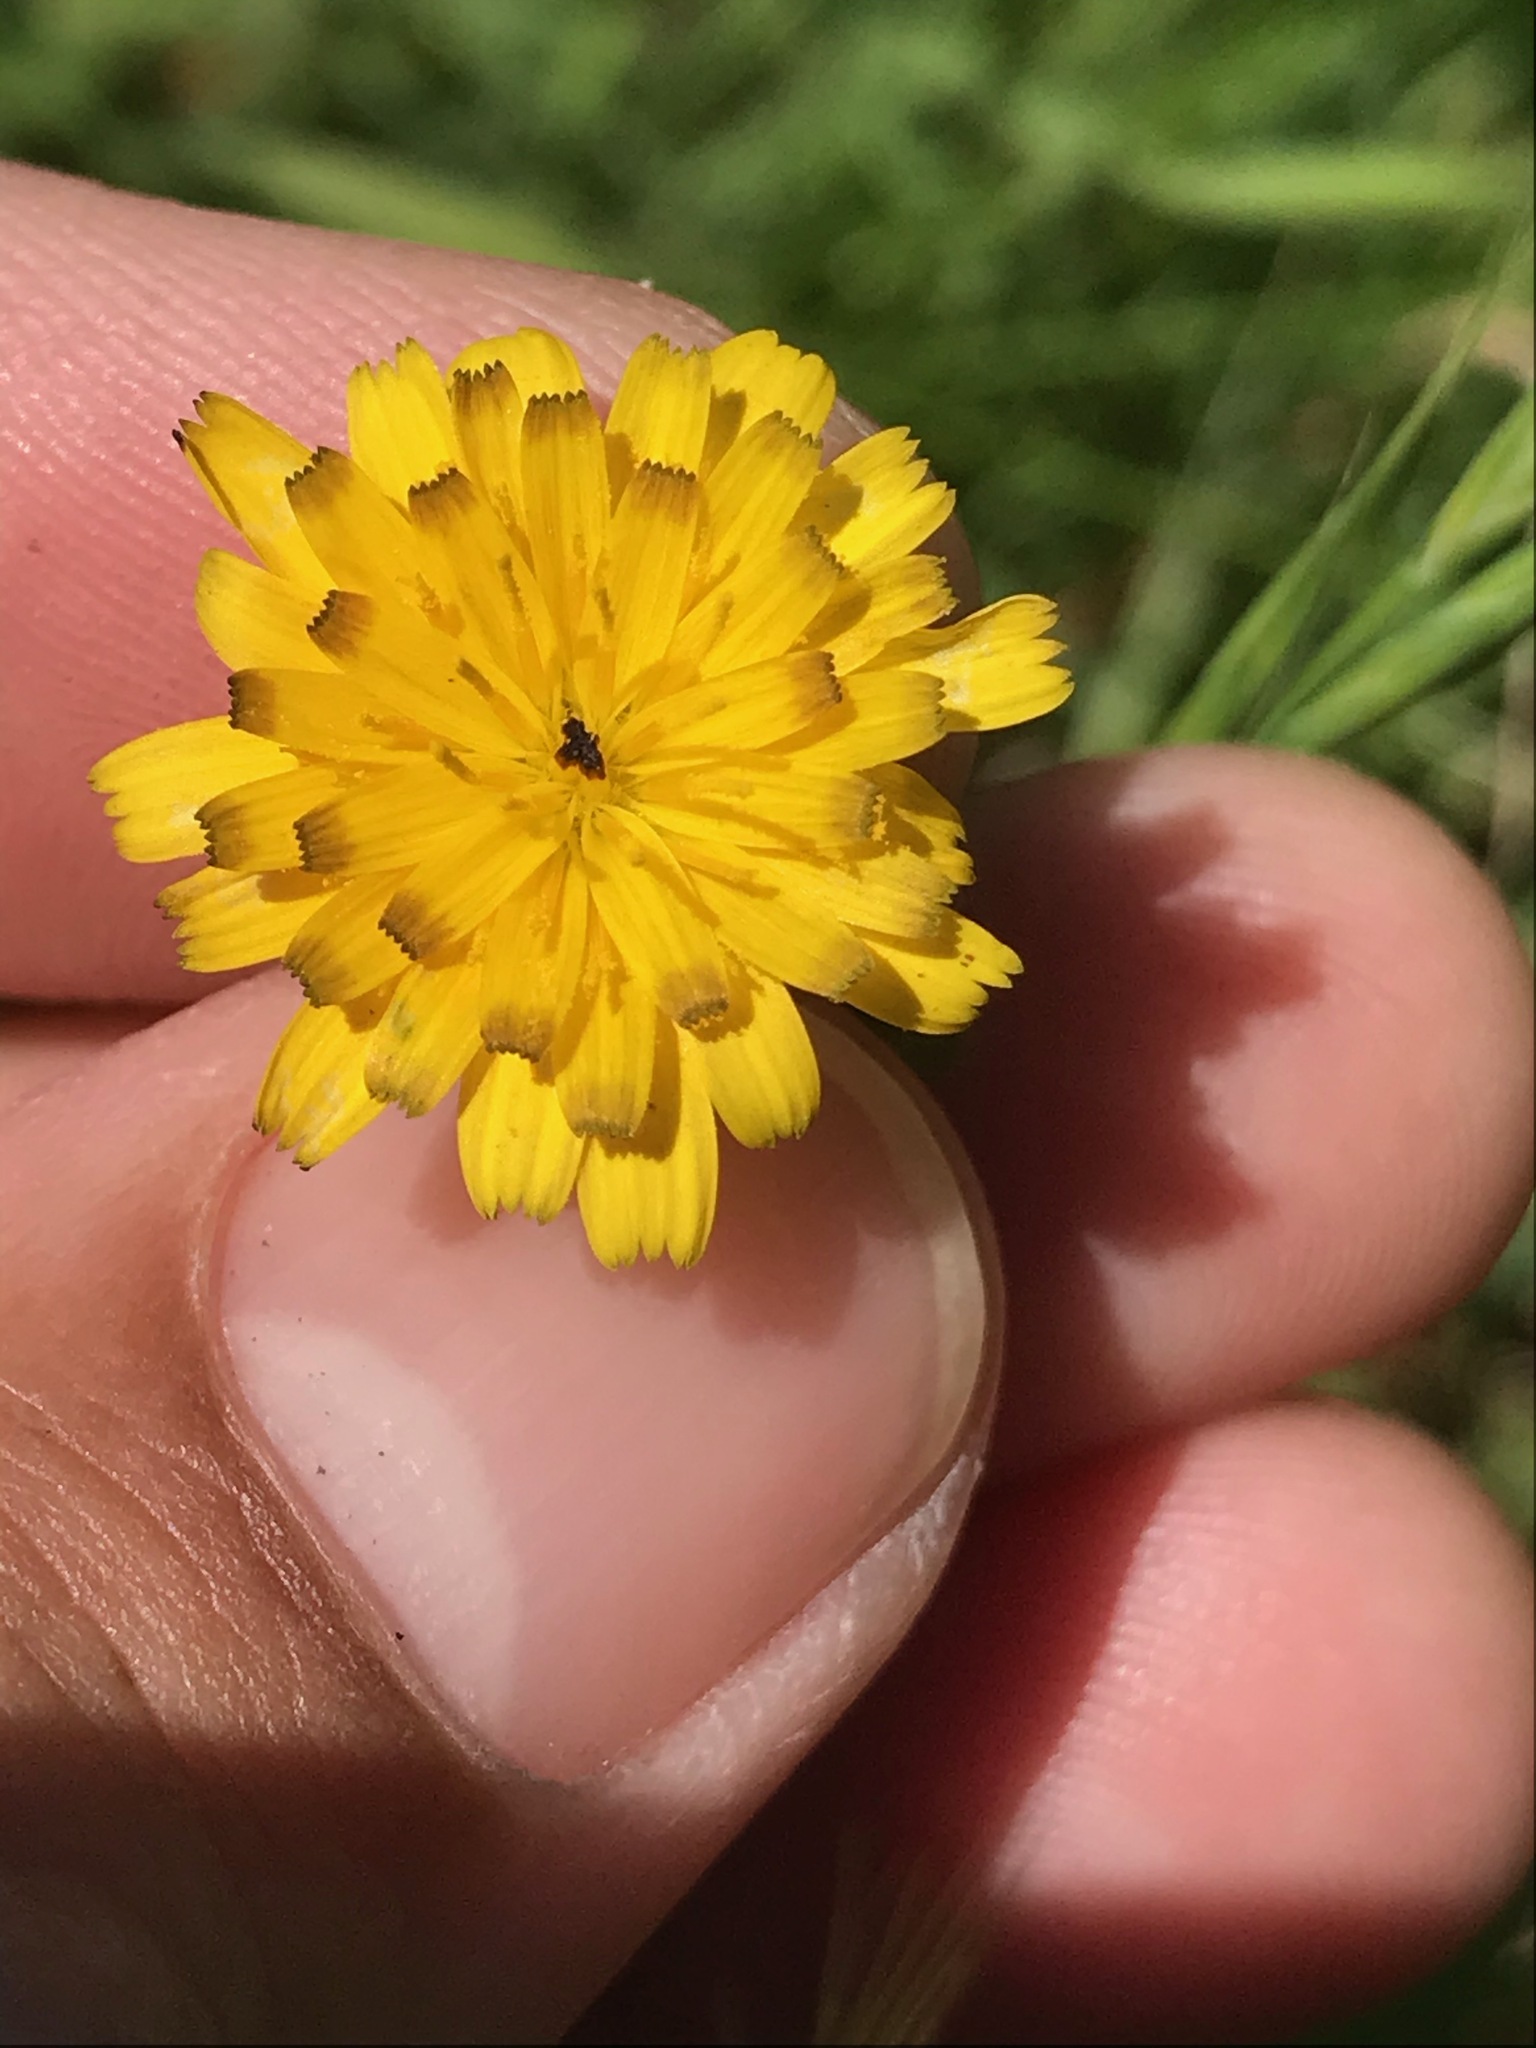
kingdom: Plantae
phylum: Tracheophyta
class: Magnoliopsida
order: Asterales
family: Asteraceae
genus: Hedypnois
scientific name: Hedypnois rhagadioloides
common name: Cretan weed
